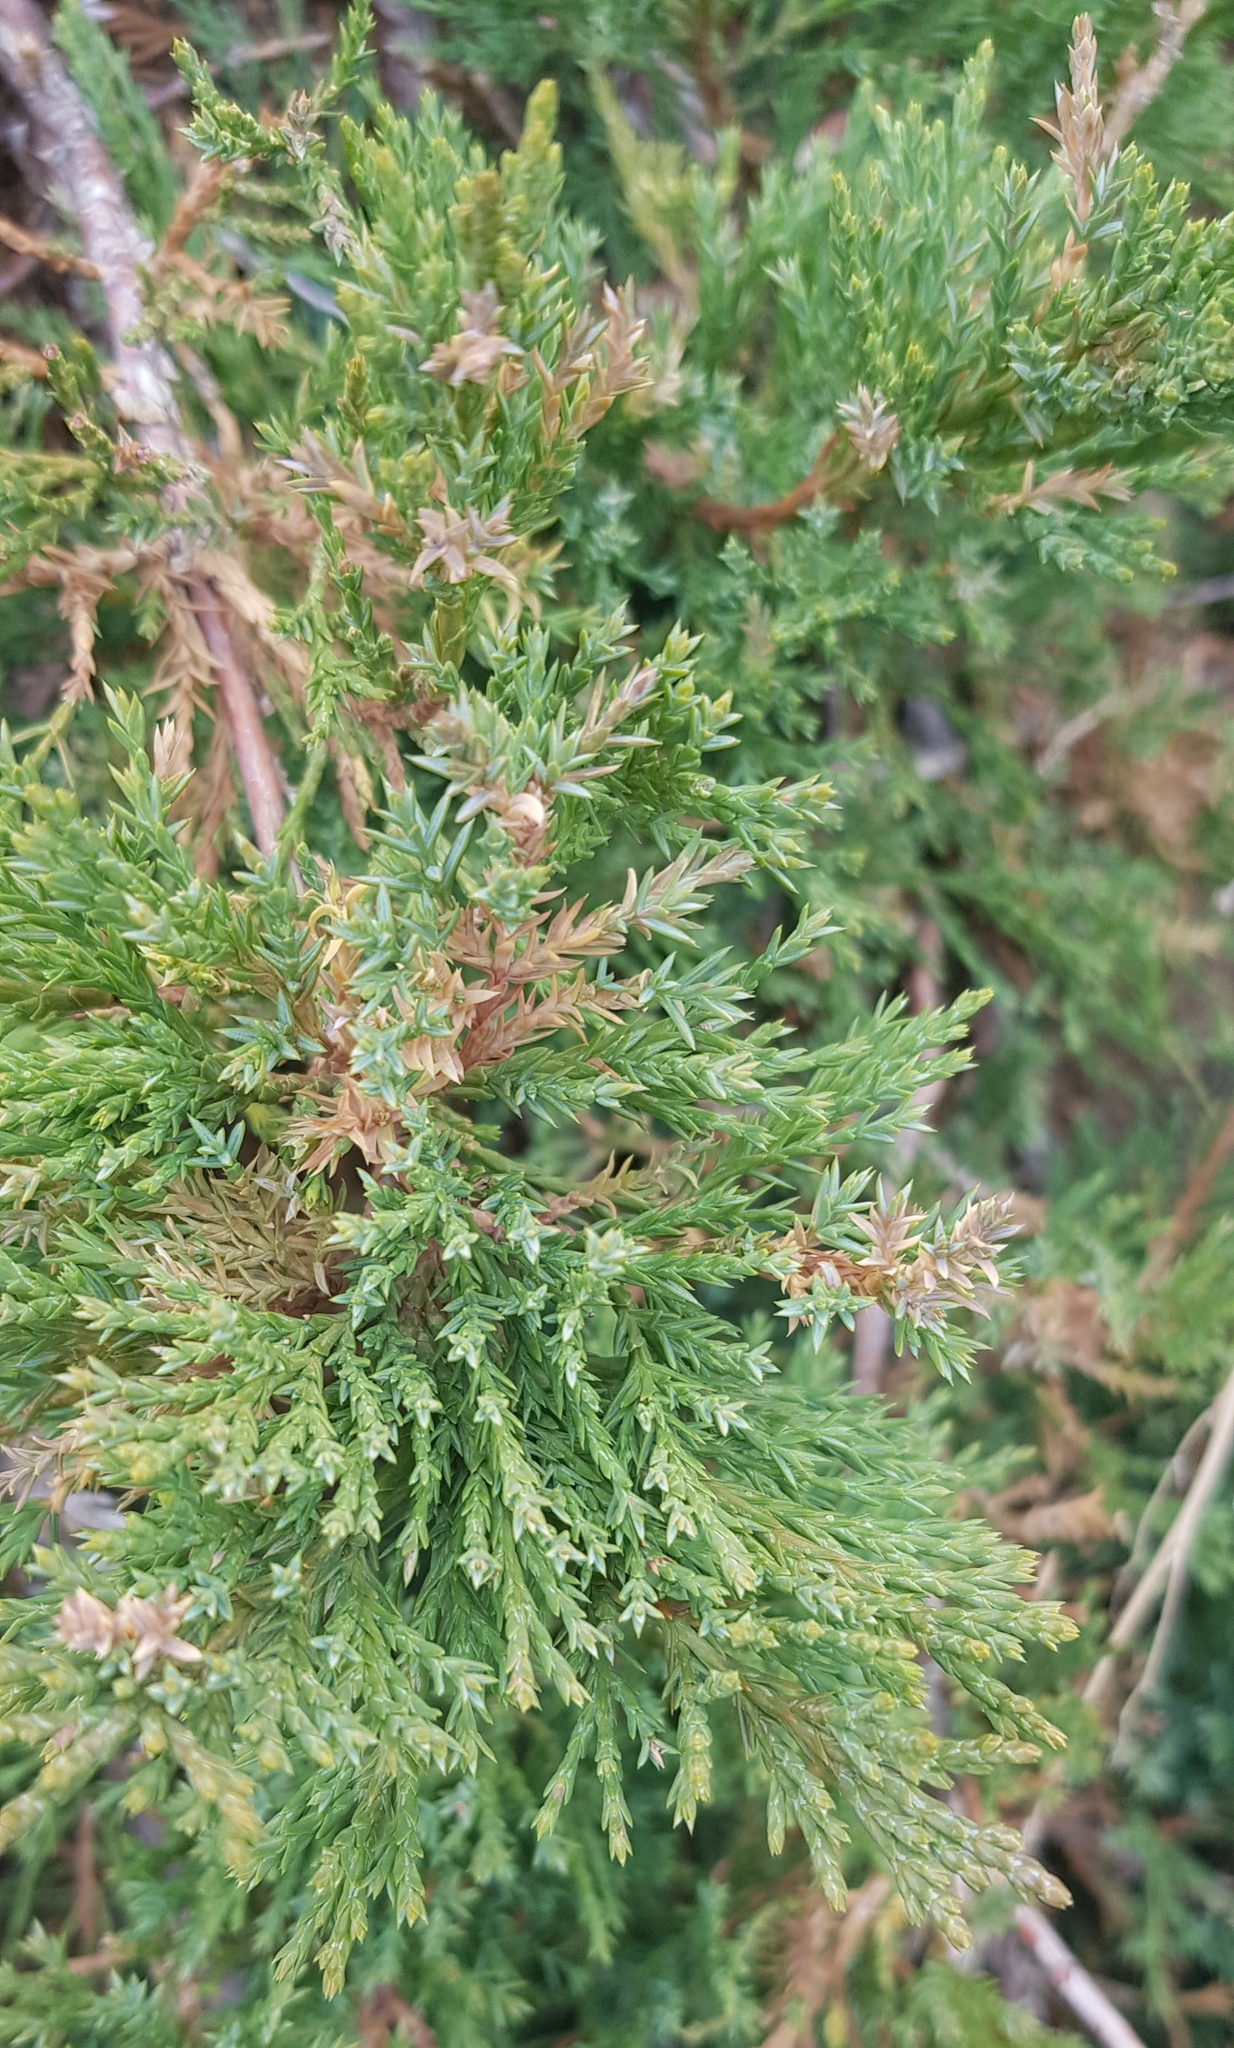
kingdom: Plantae
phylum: Tracheophyta
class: Pinopsida
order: Pinales
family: Cupressaceae
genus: Juniperus
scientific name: Juniperus sabina
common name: Savin
